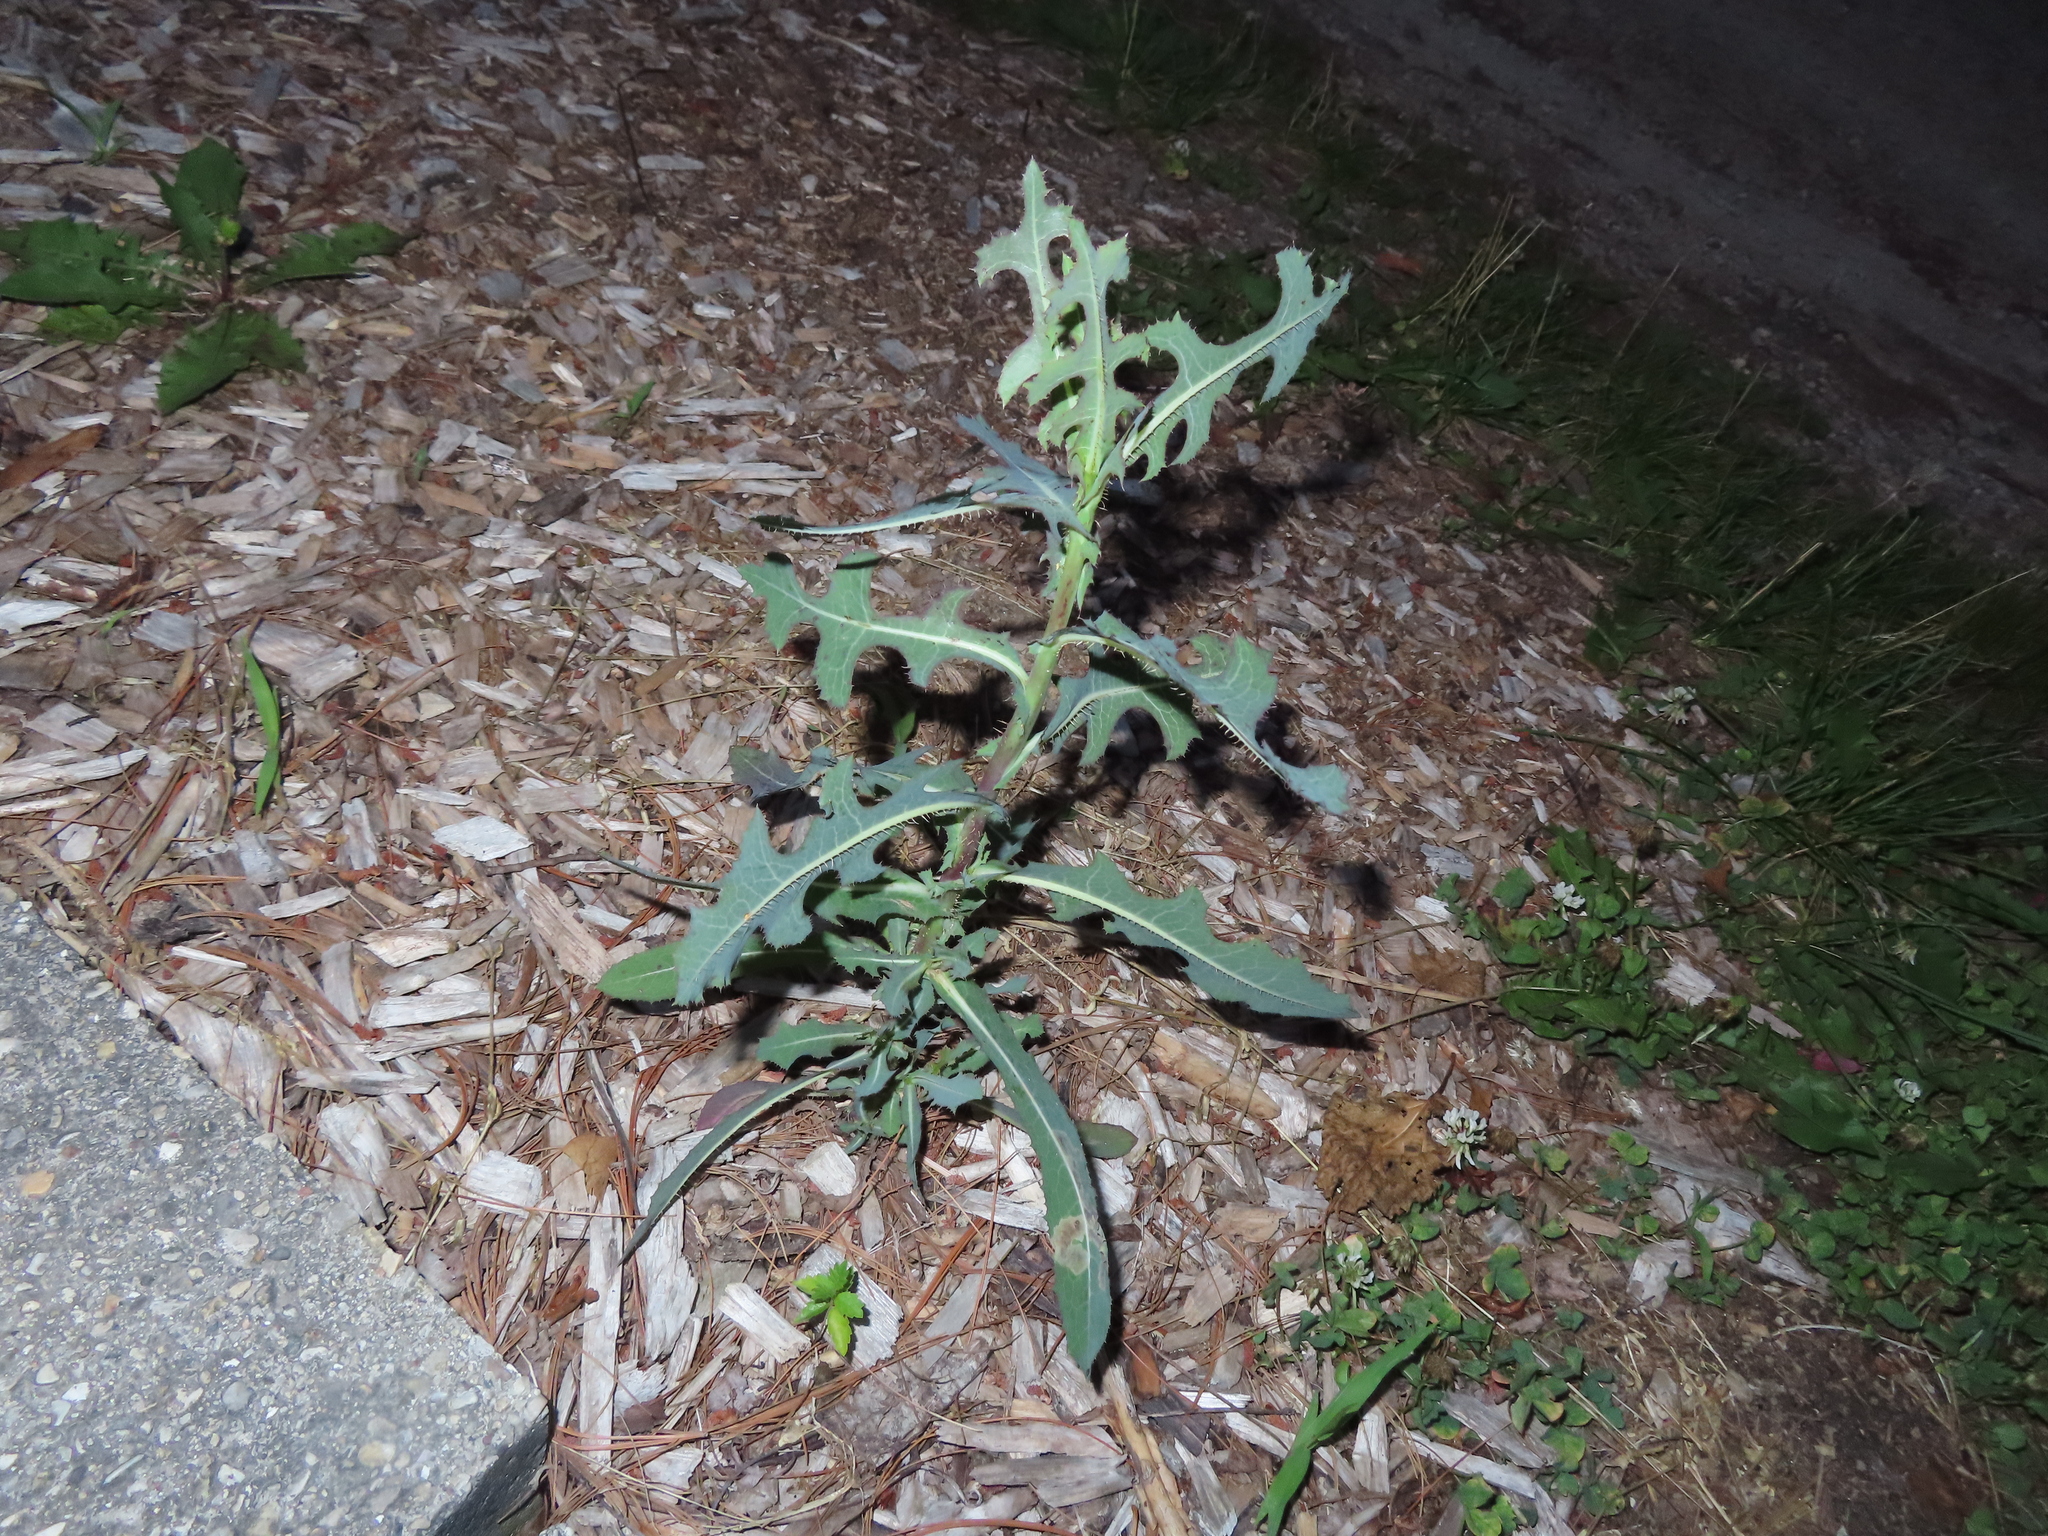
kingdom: Plantae
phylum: Tracheophyta
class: Magnoliopsida
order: Asterales
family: Asteraceae
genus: Lactuca
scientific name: Lactuca serriola
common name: Prickly lettuce
